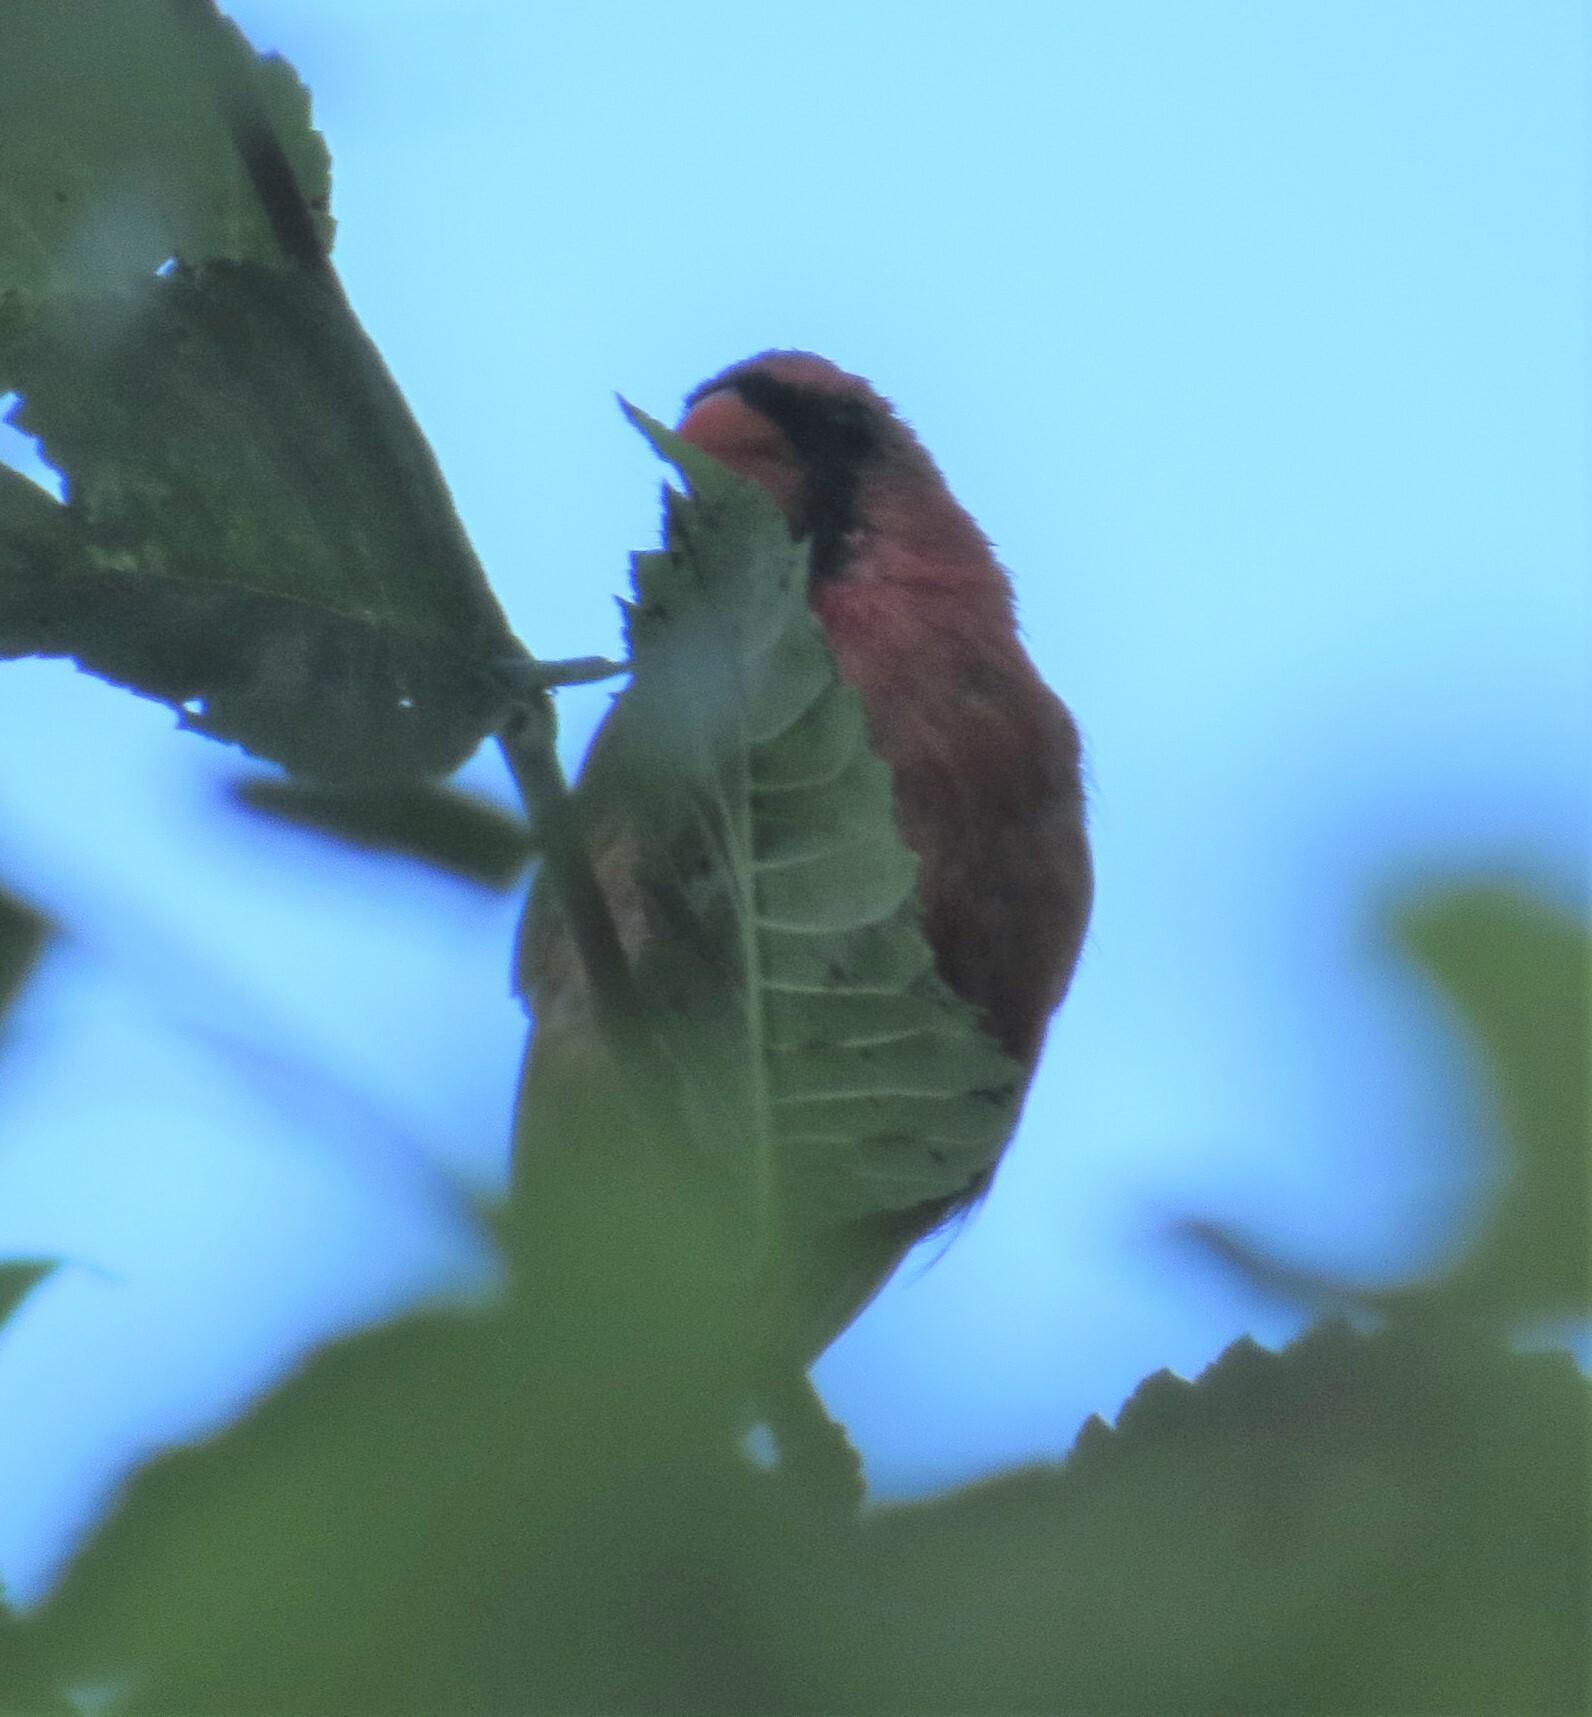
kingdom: Animalia
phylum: Chordata
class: Aves
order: Passeriformes
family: Cardinalidae
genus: Cardinalis
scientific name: Cardinalis cardinalis
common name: Northern cardinal
